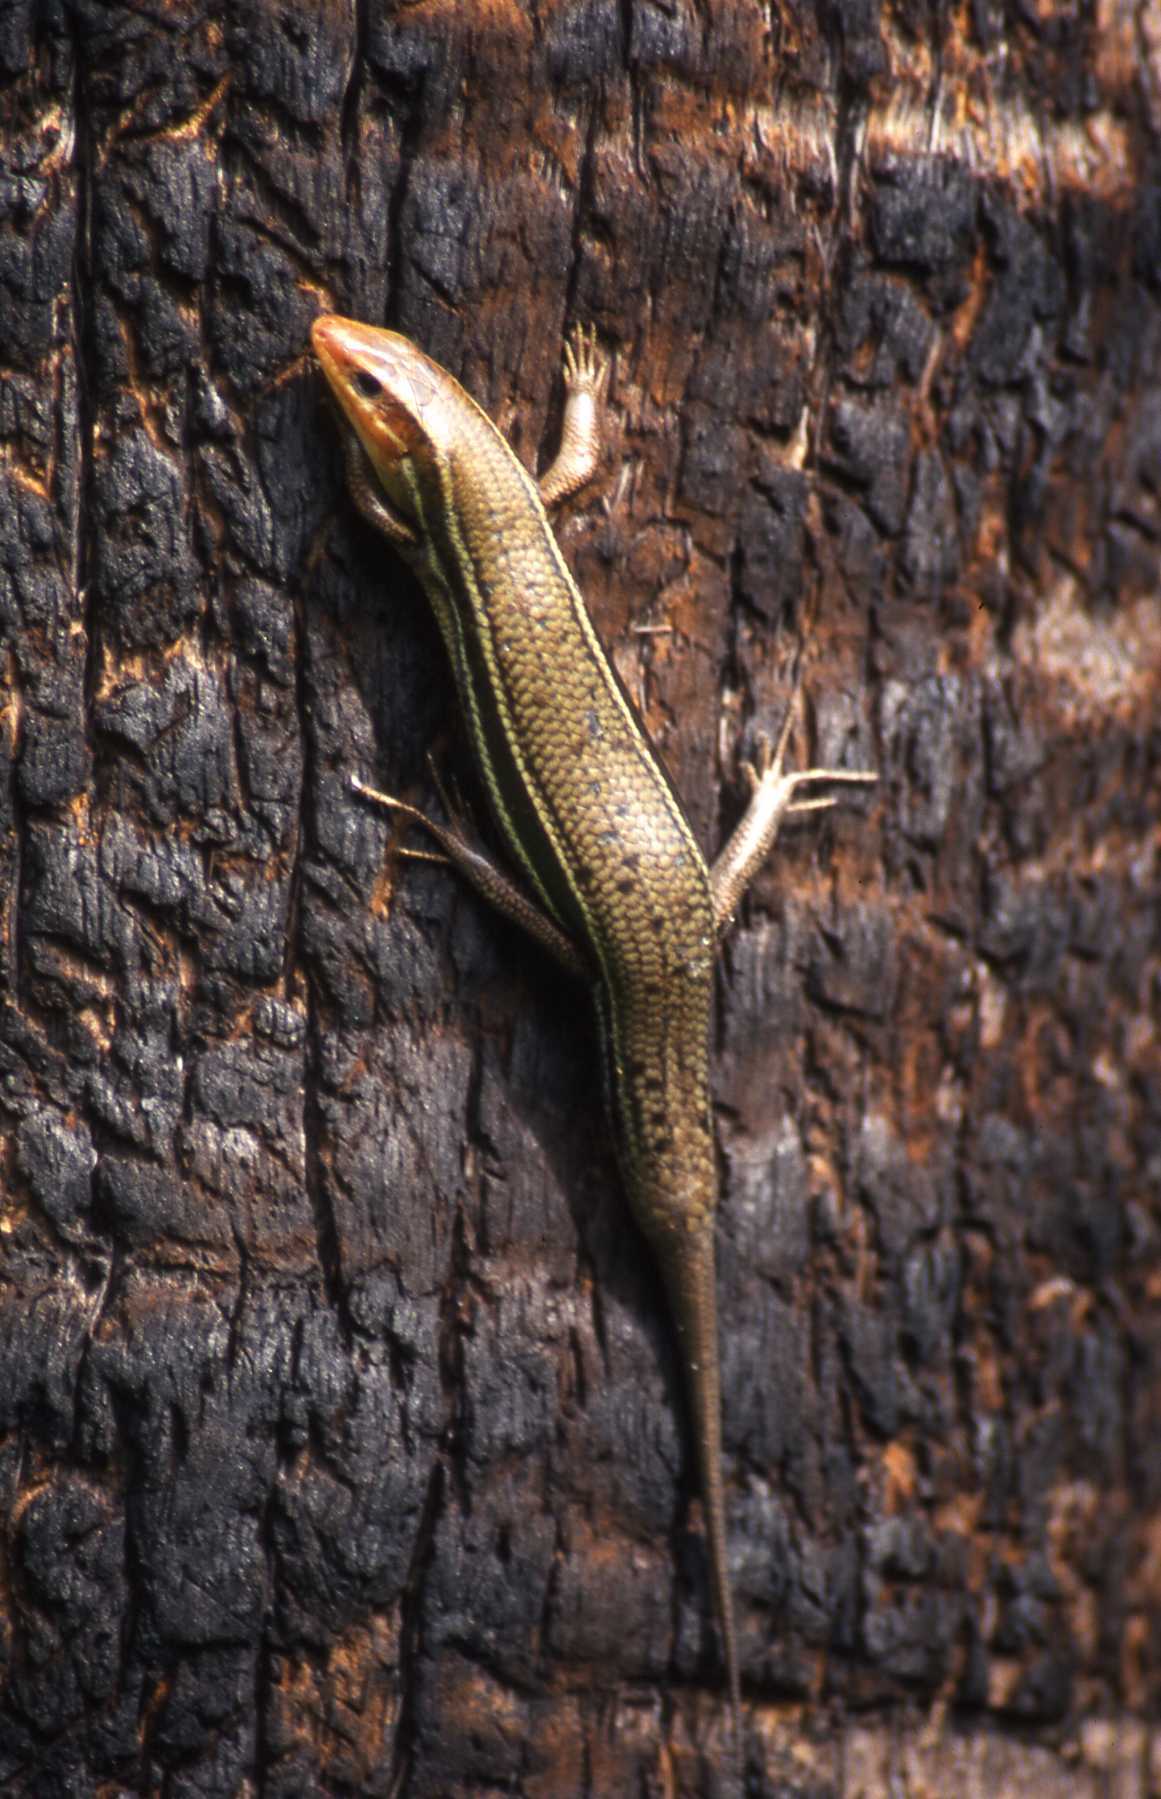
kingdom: Animalia
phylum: Chordata
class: Squamata
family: Scincidae
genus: Plestiodon
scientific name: Plestiodon inexpectatus
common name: Southeastern five-lined skink
